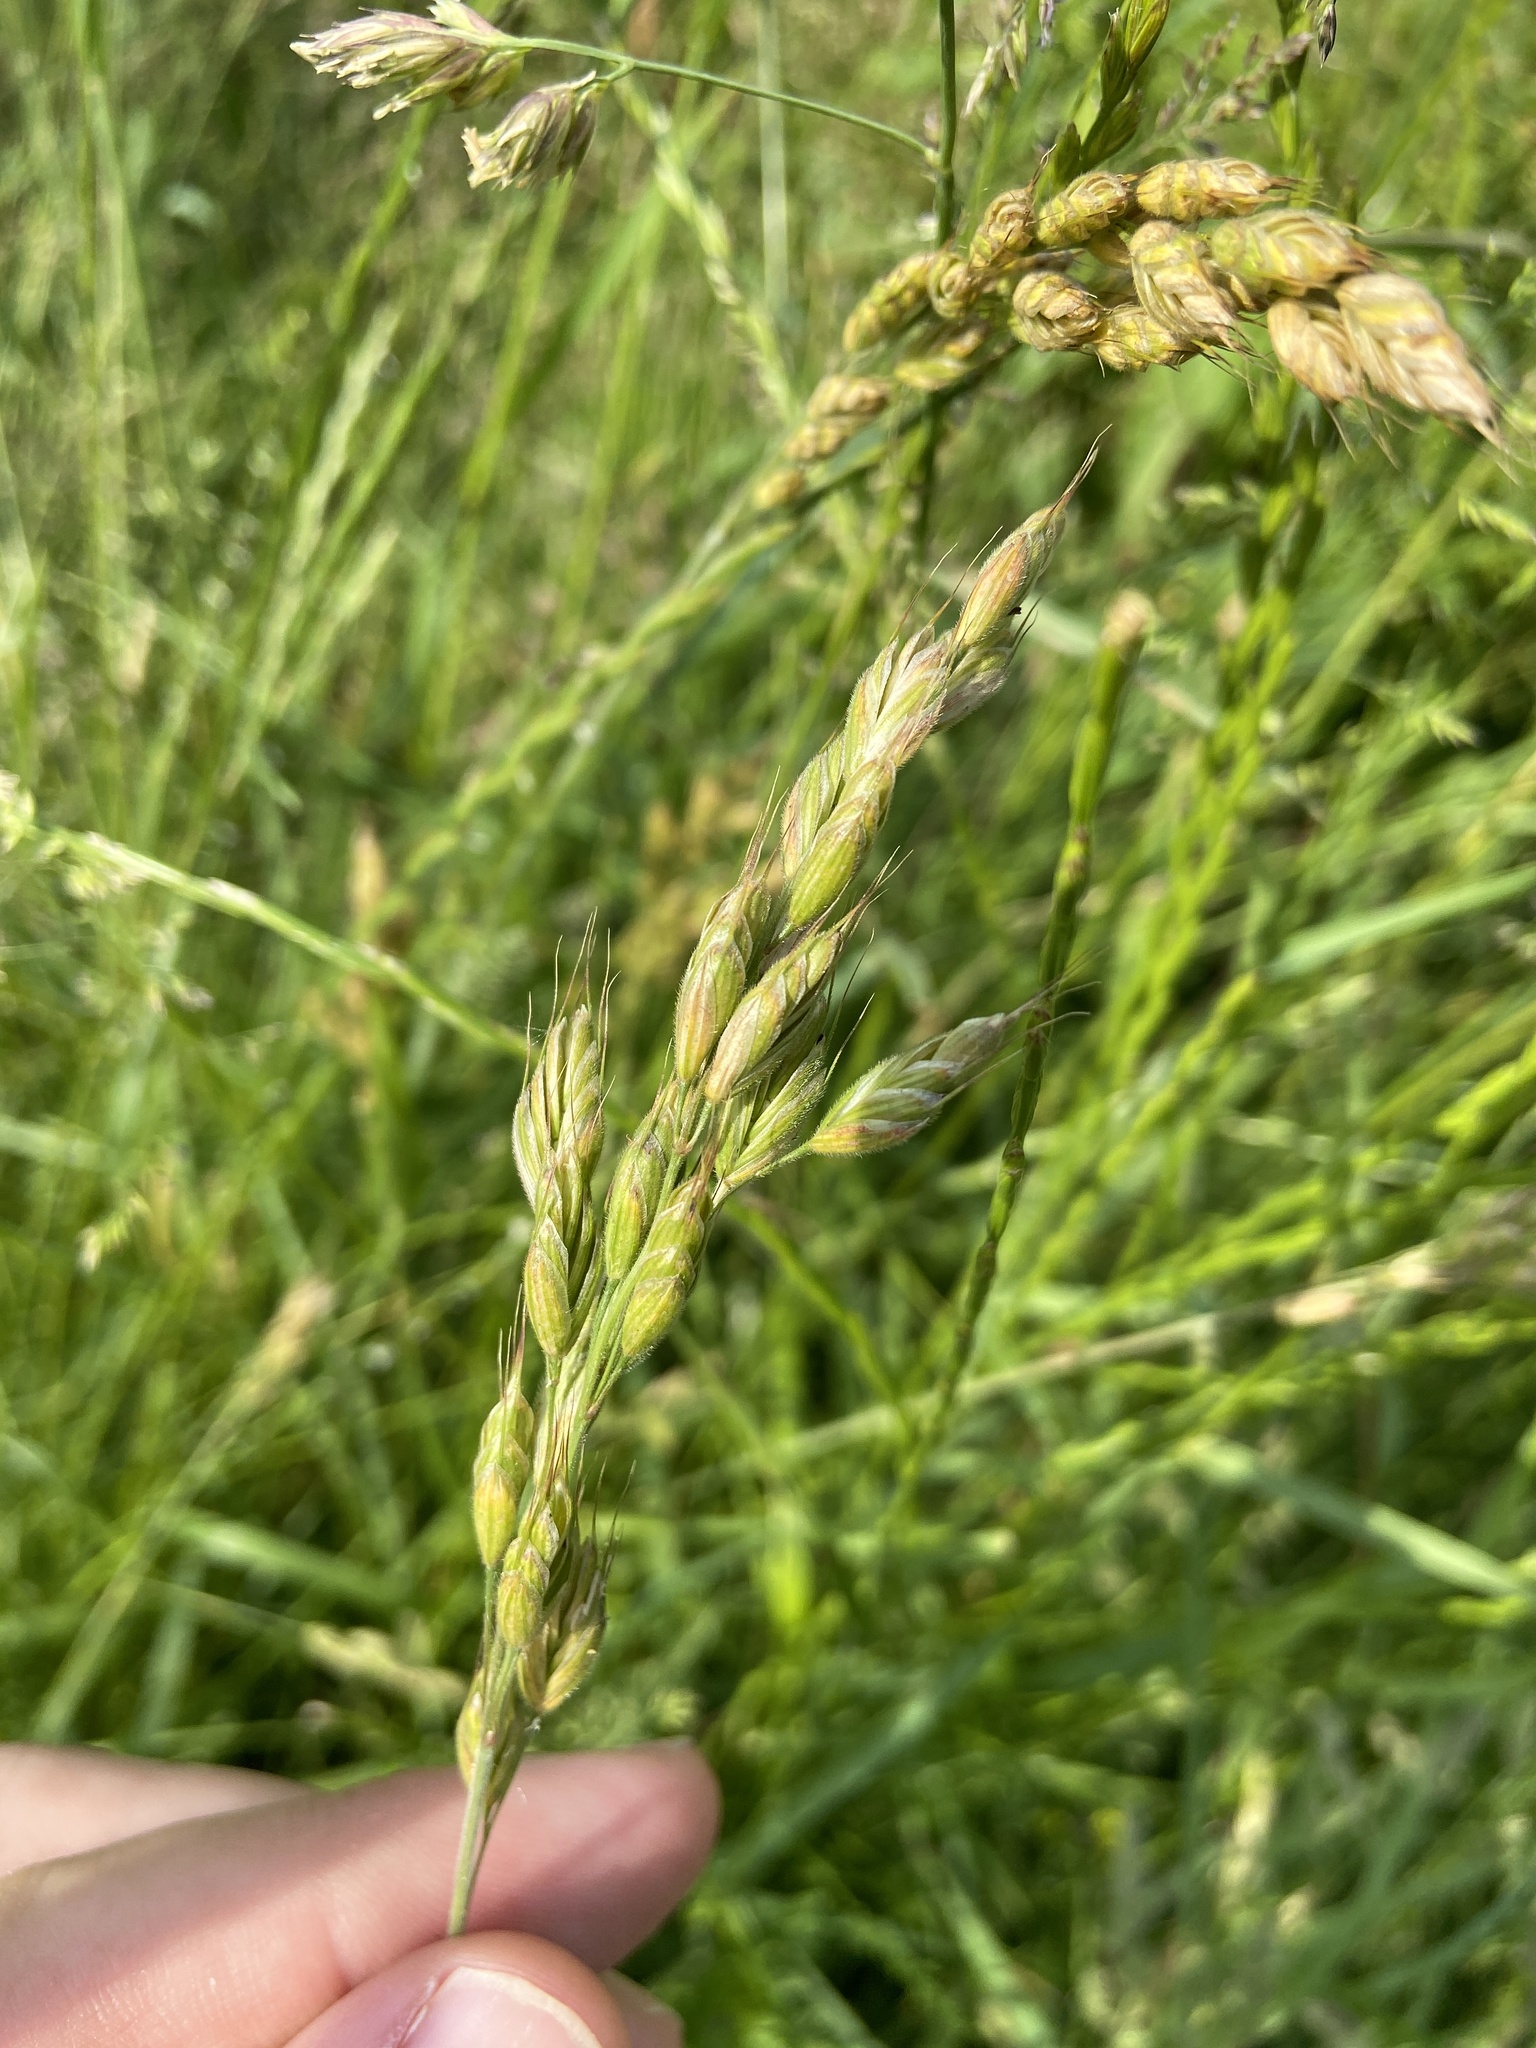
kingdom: Plantae
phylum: Tracheophyta
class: Liliopsida
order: Poales
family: Poaceae
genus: Bromus
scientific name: Bromus hordeaceus
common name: Soft brome
